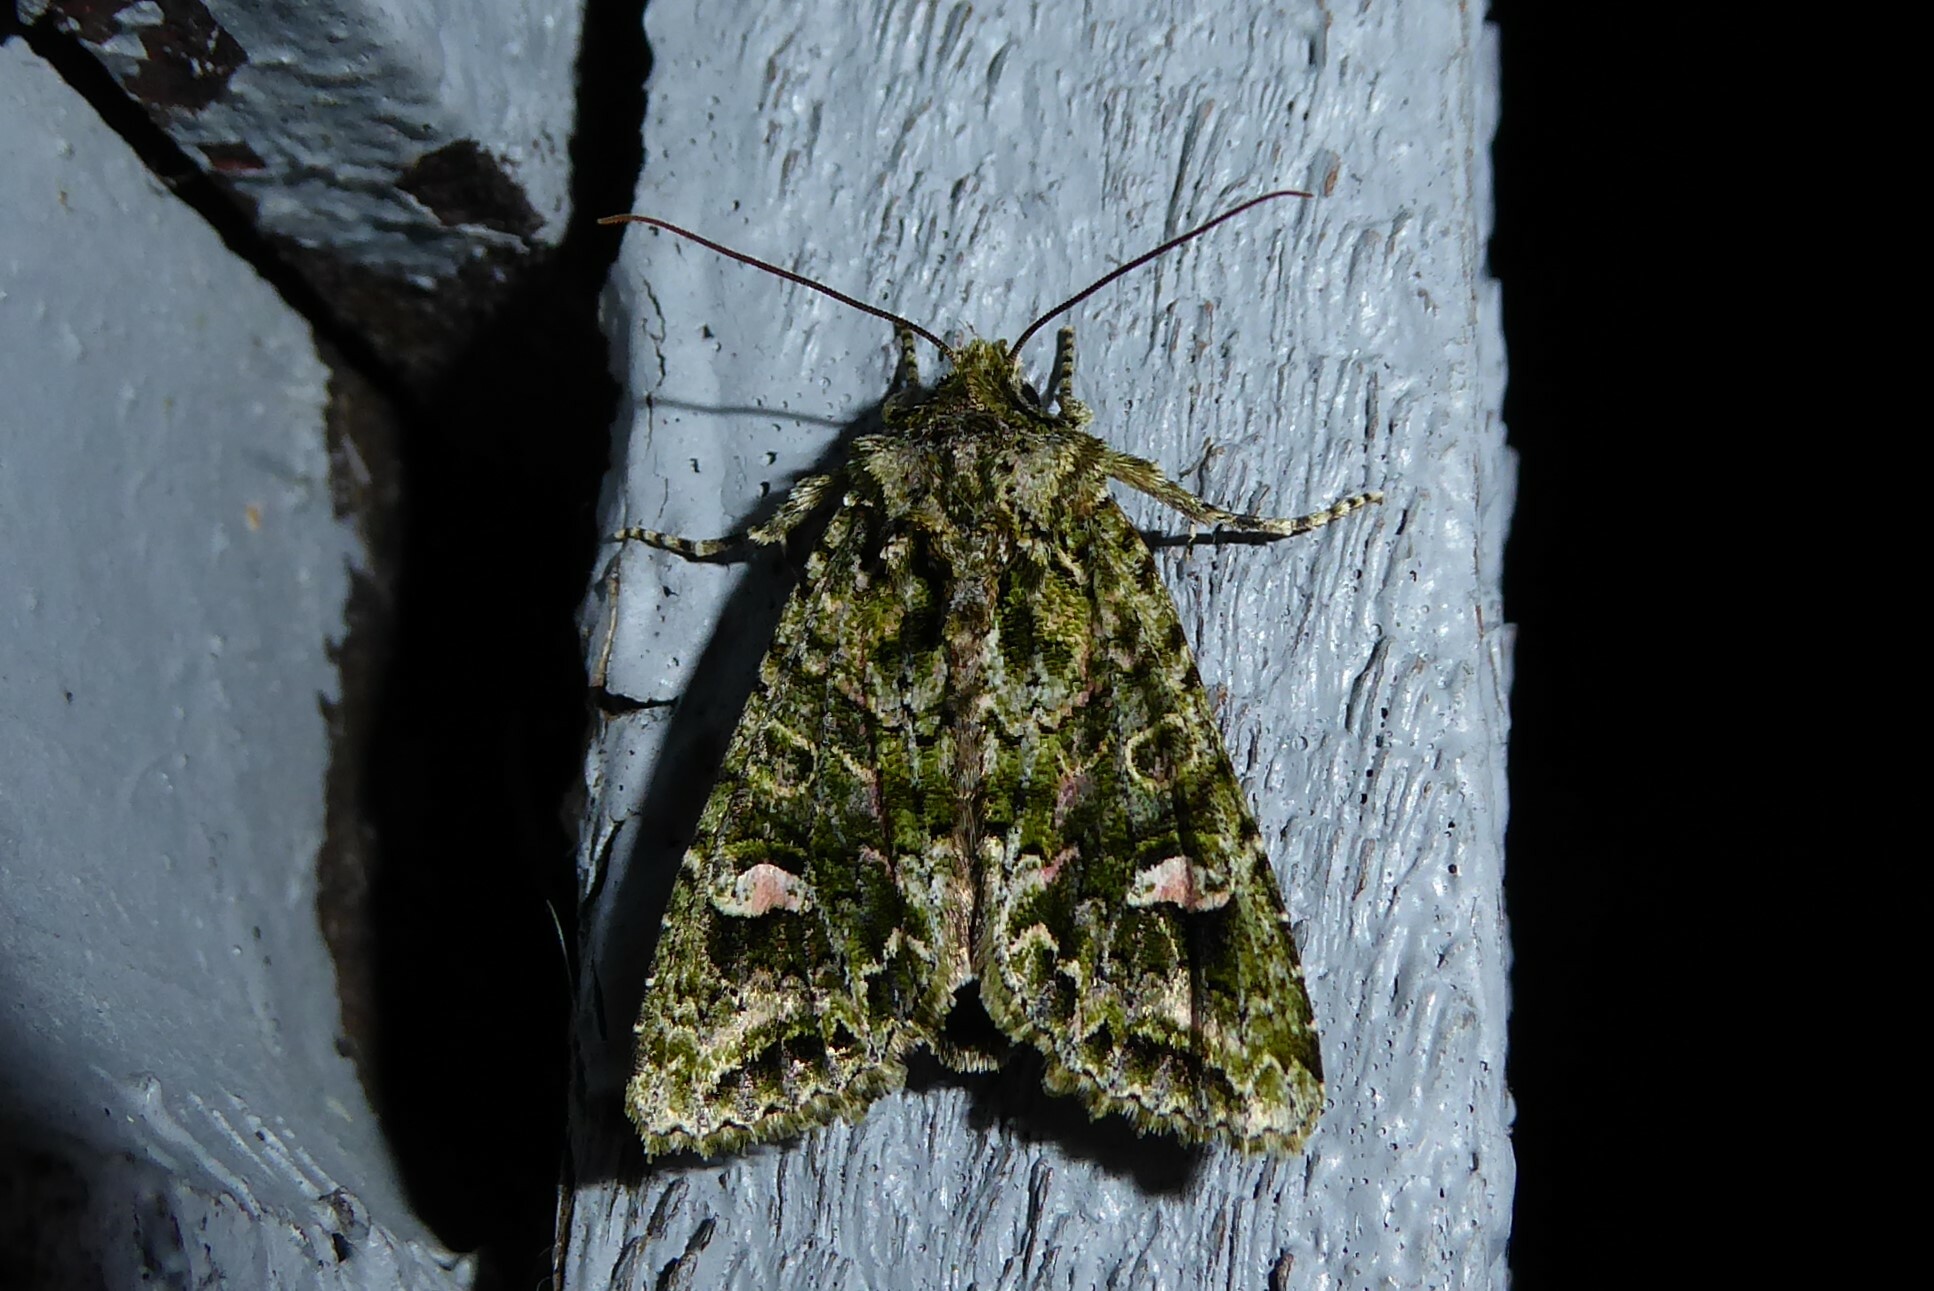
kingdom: Animalia
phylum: Arthropoda
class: Insecta
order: Lepidoptera
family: Noctuidae
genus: Ichneutica
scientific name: Ichneutica
